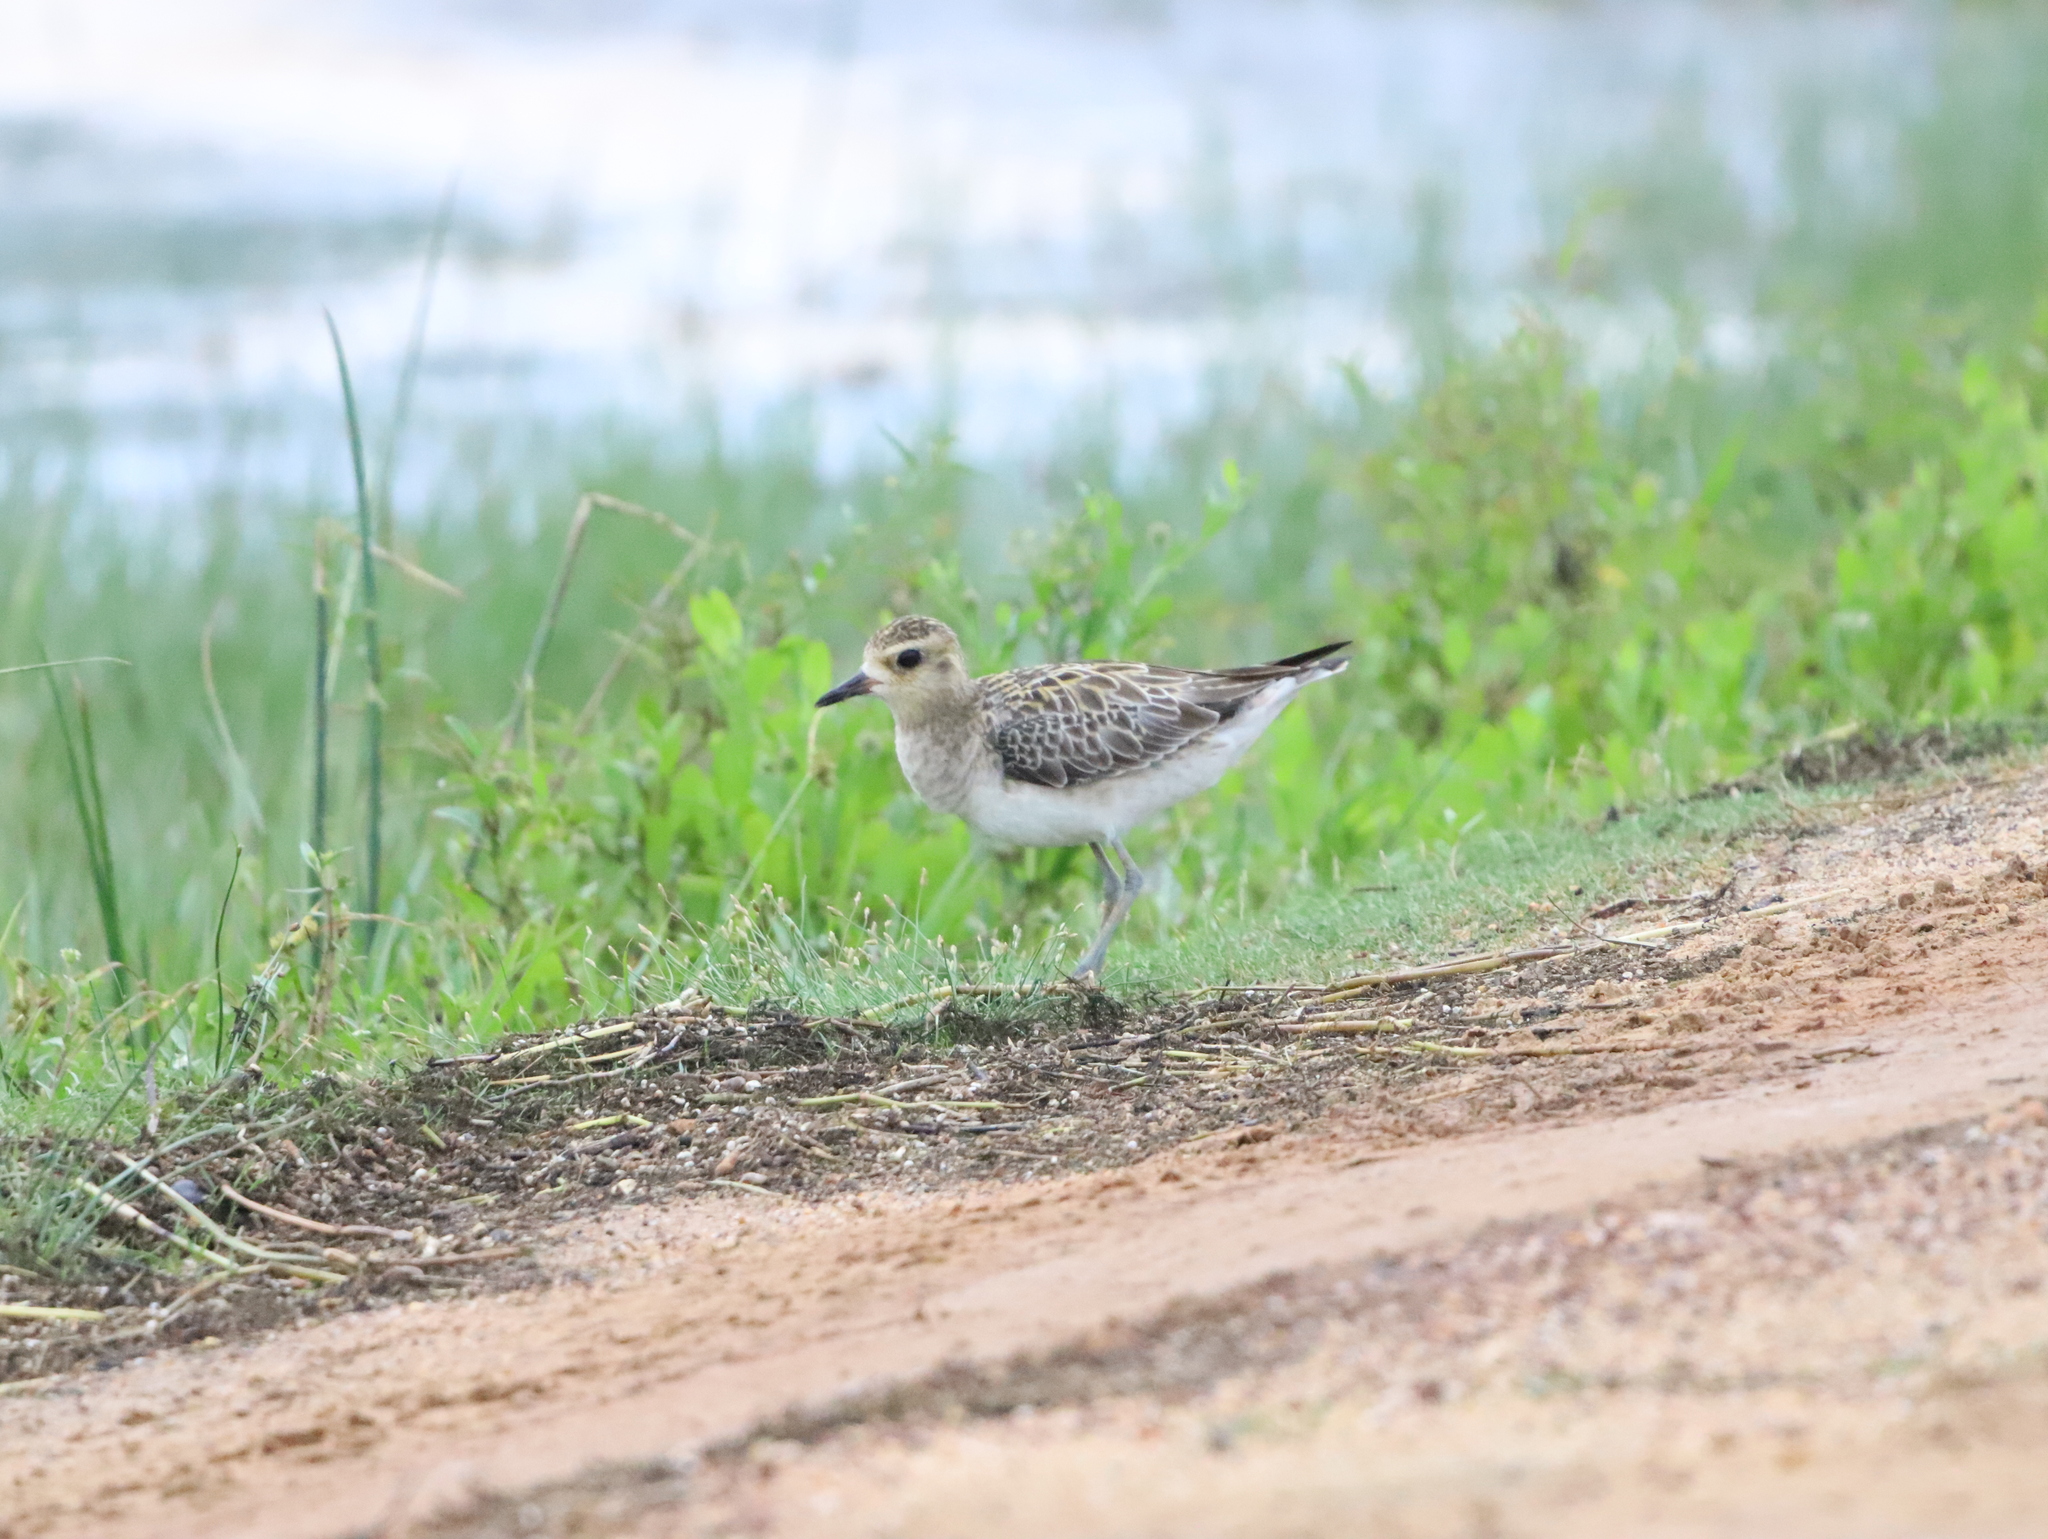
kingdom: Animalia
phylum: Chordata
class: Aves
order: Charadriiformes
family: Charadriidae
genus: Pluvialis
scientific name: Pluvialis fulva
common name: Pacific golden plover
